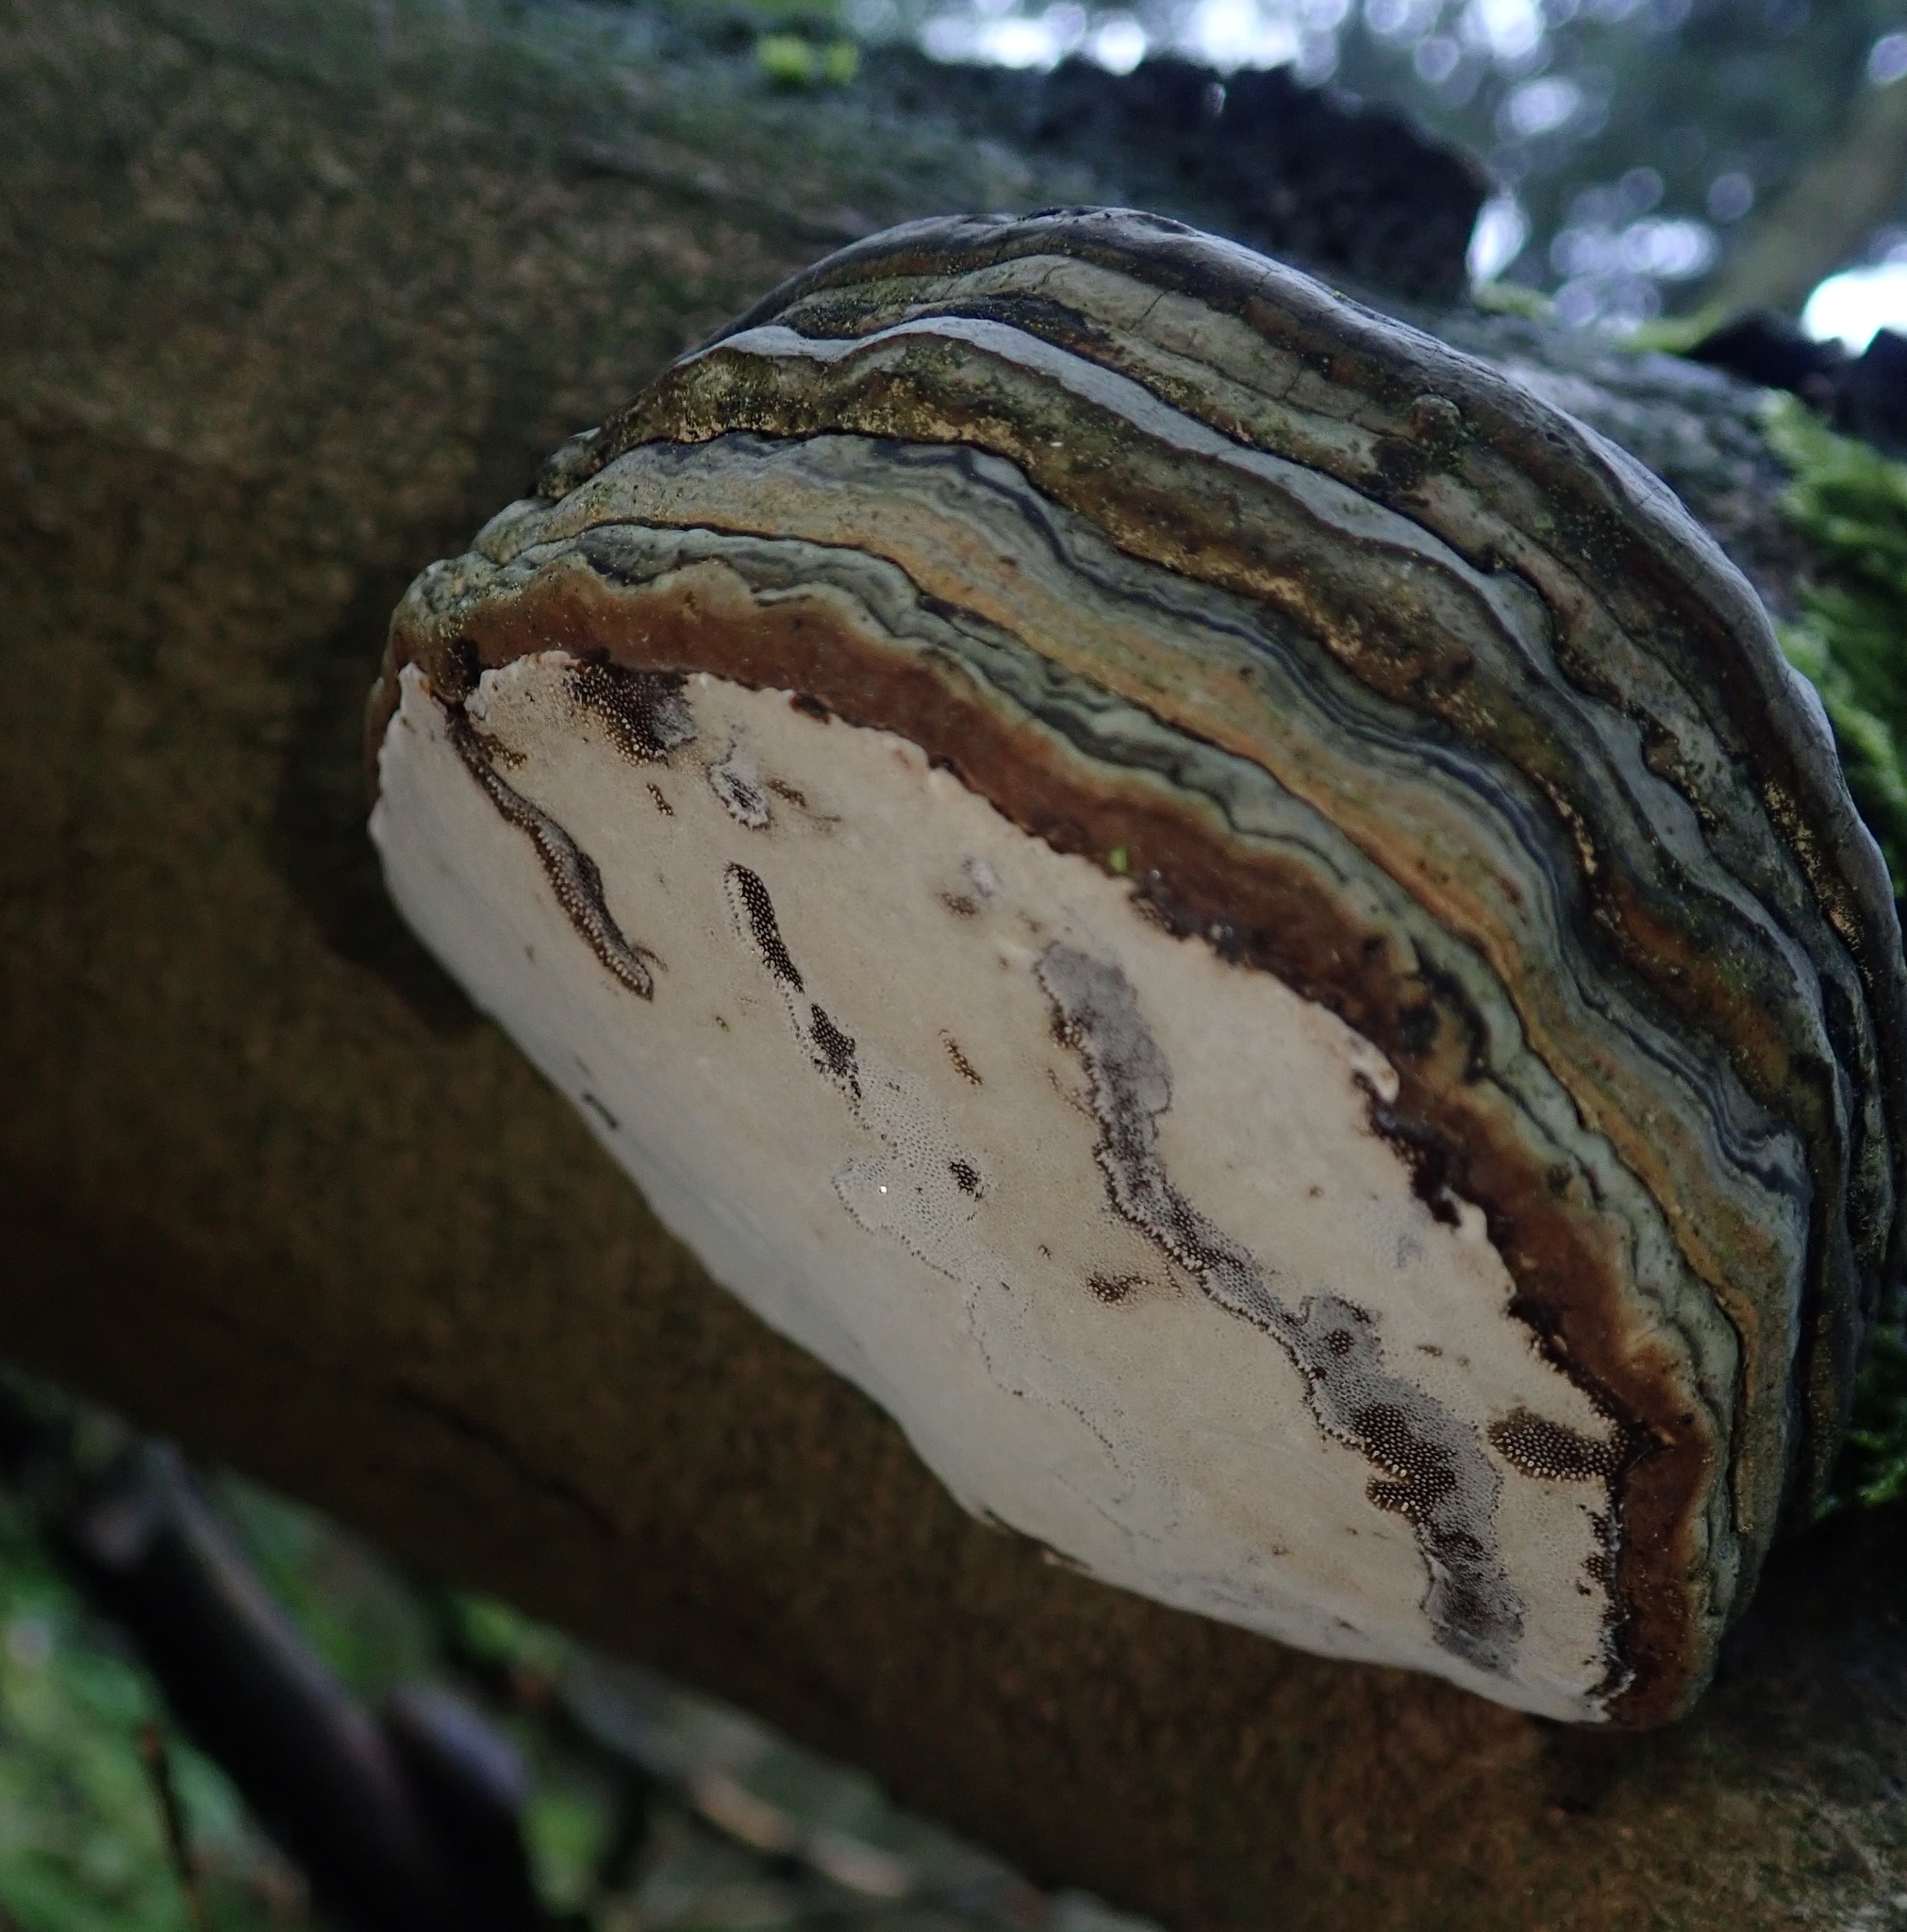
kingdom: Fungi
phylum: Basidiomycota
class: Agaricomycetes
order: Polyporales
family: Polyporaceae
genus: Fomes
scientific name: Fomes fomentarius
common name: Hoof fungus
